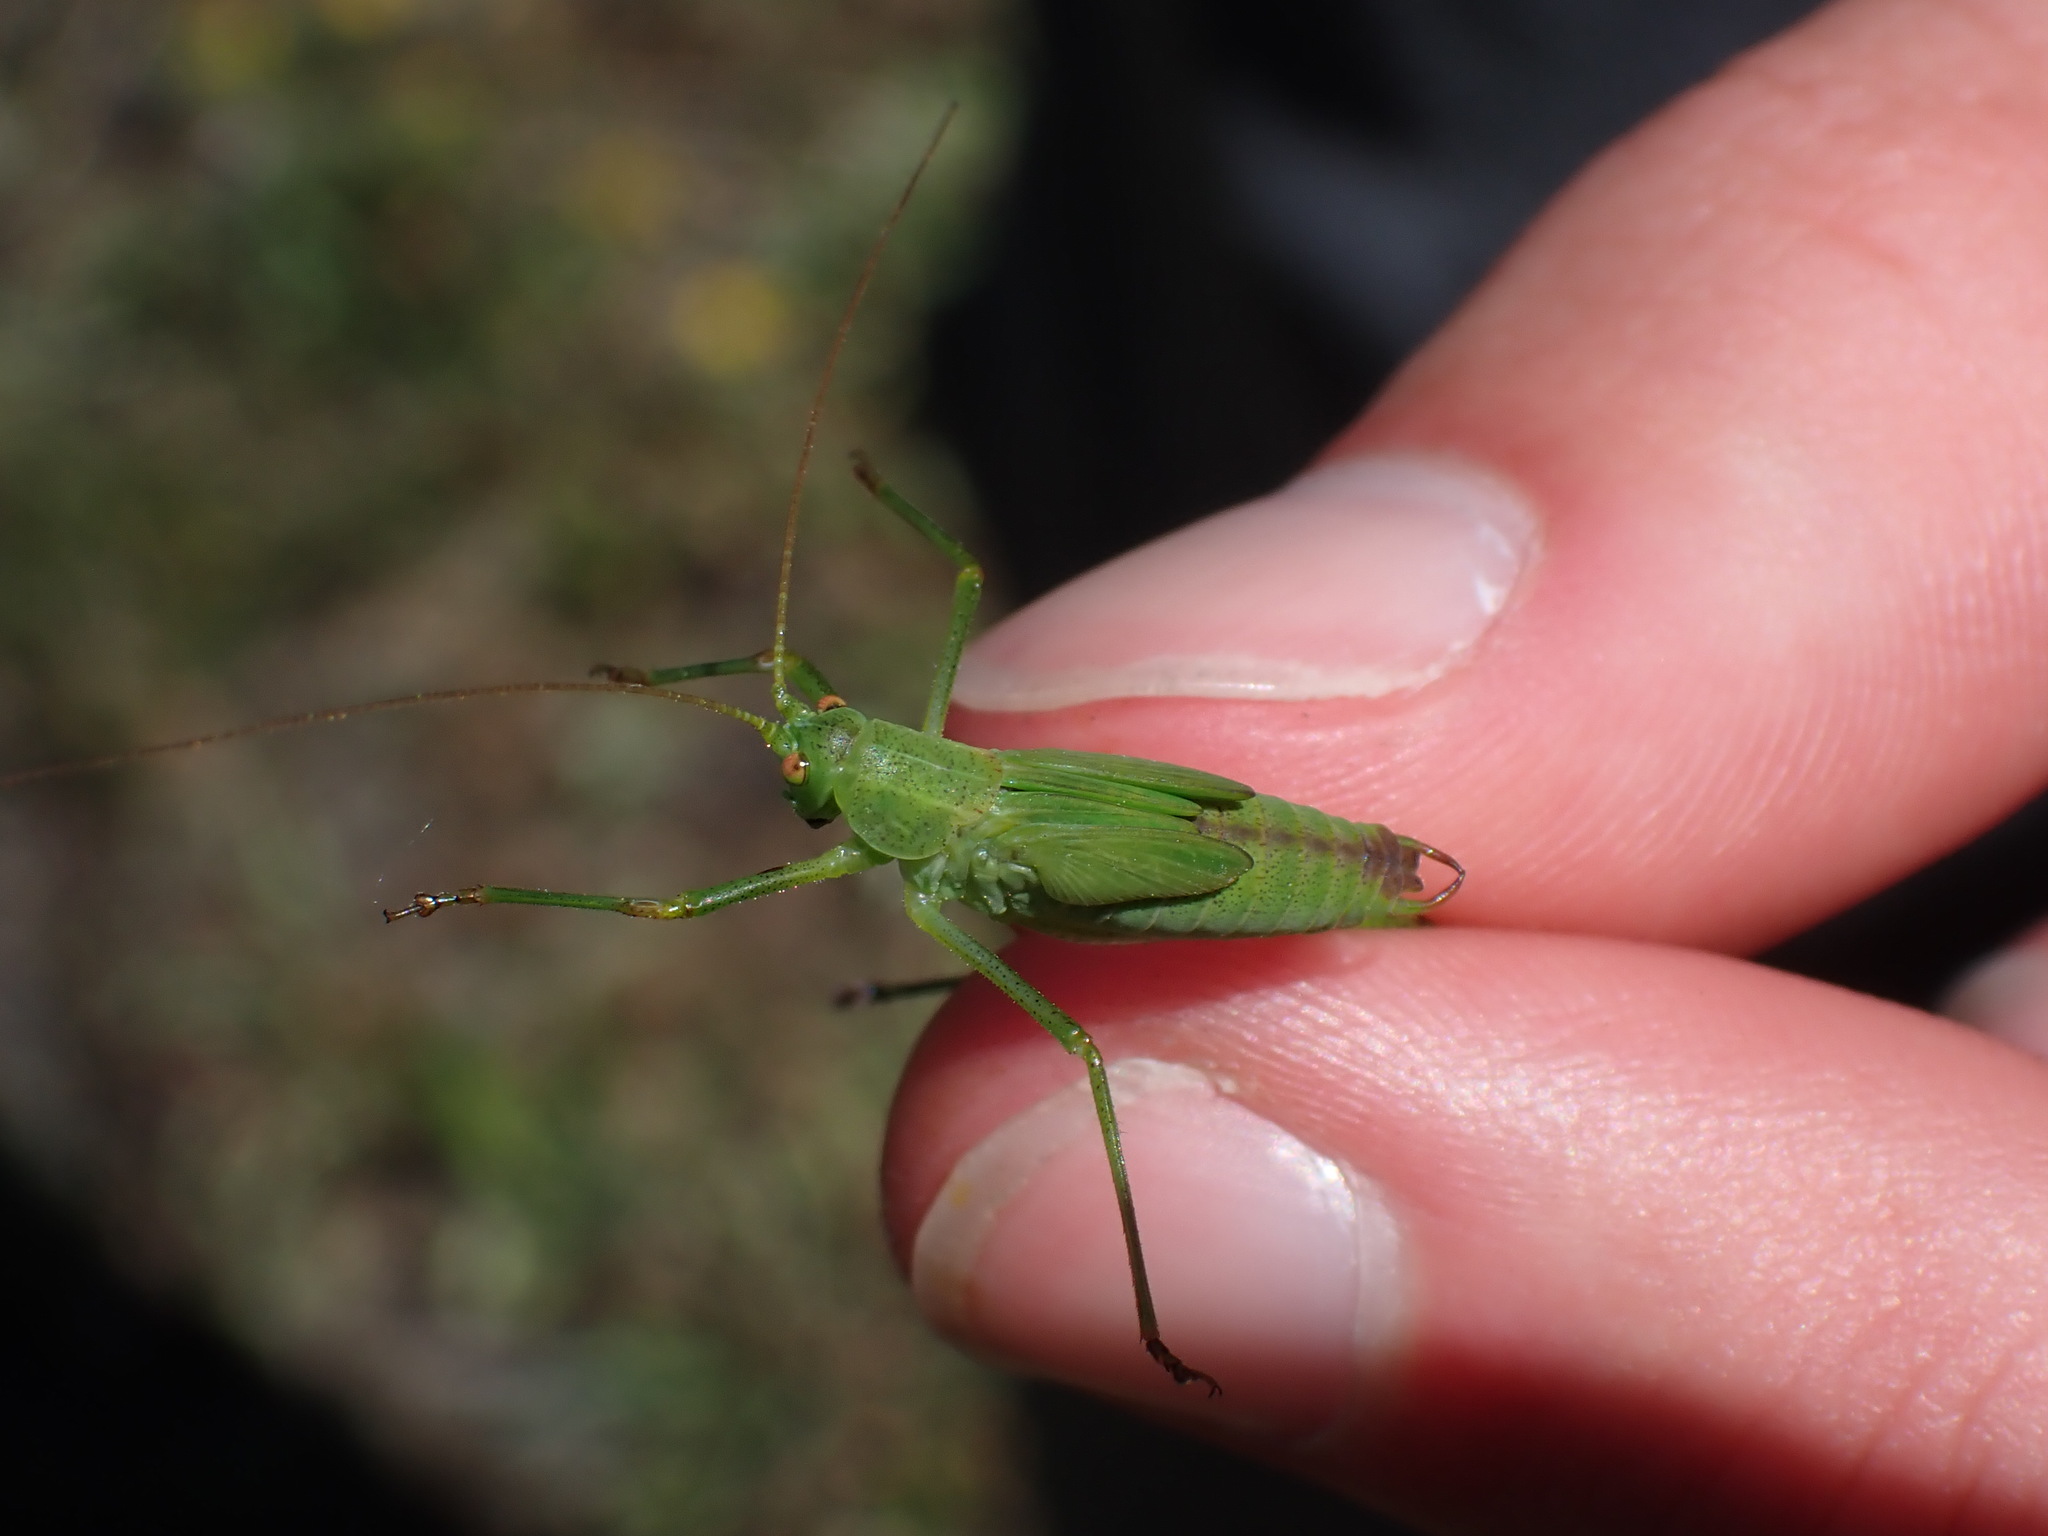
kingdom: Animalia
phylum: Arthropoda
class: Insecta
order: Orthoptera
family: Tettigoniidae
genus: Phaneroptera
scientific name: Phaneroptera falcata
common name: Sickle-bearing bush-cricket
